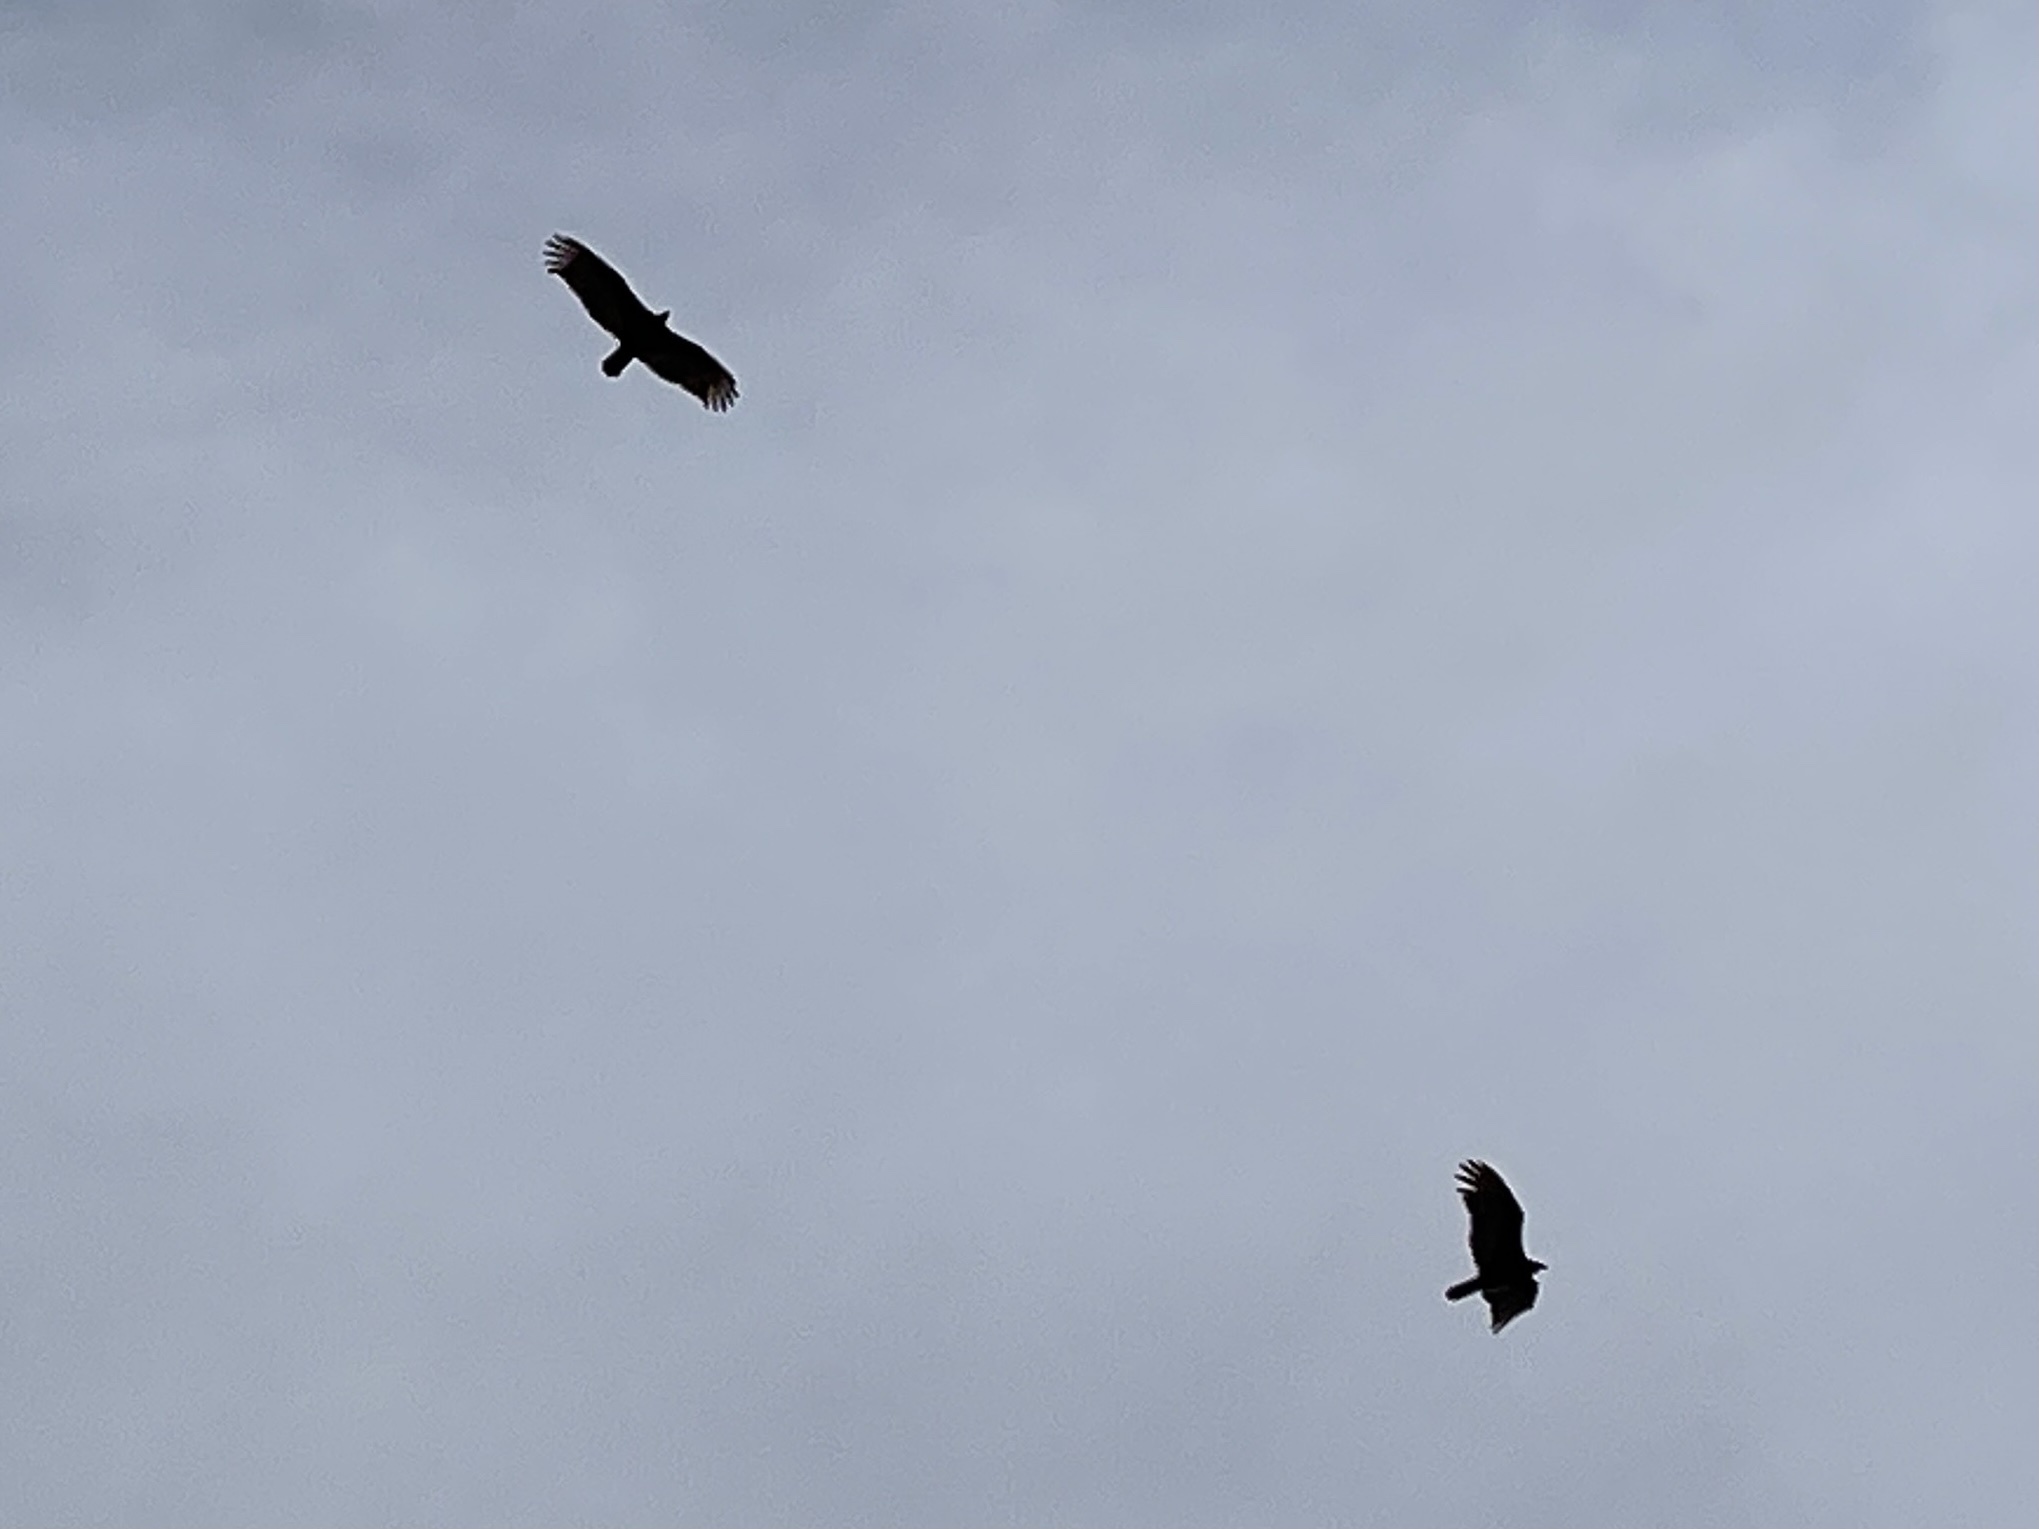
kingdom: Animalia
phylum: Chordata
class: Aves
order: Accipitriformes
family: Cathartidae
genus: Cathartes
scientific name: Cathartes aura
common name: Turkey vulture
